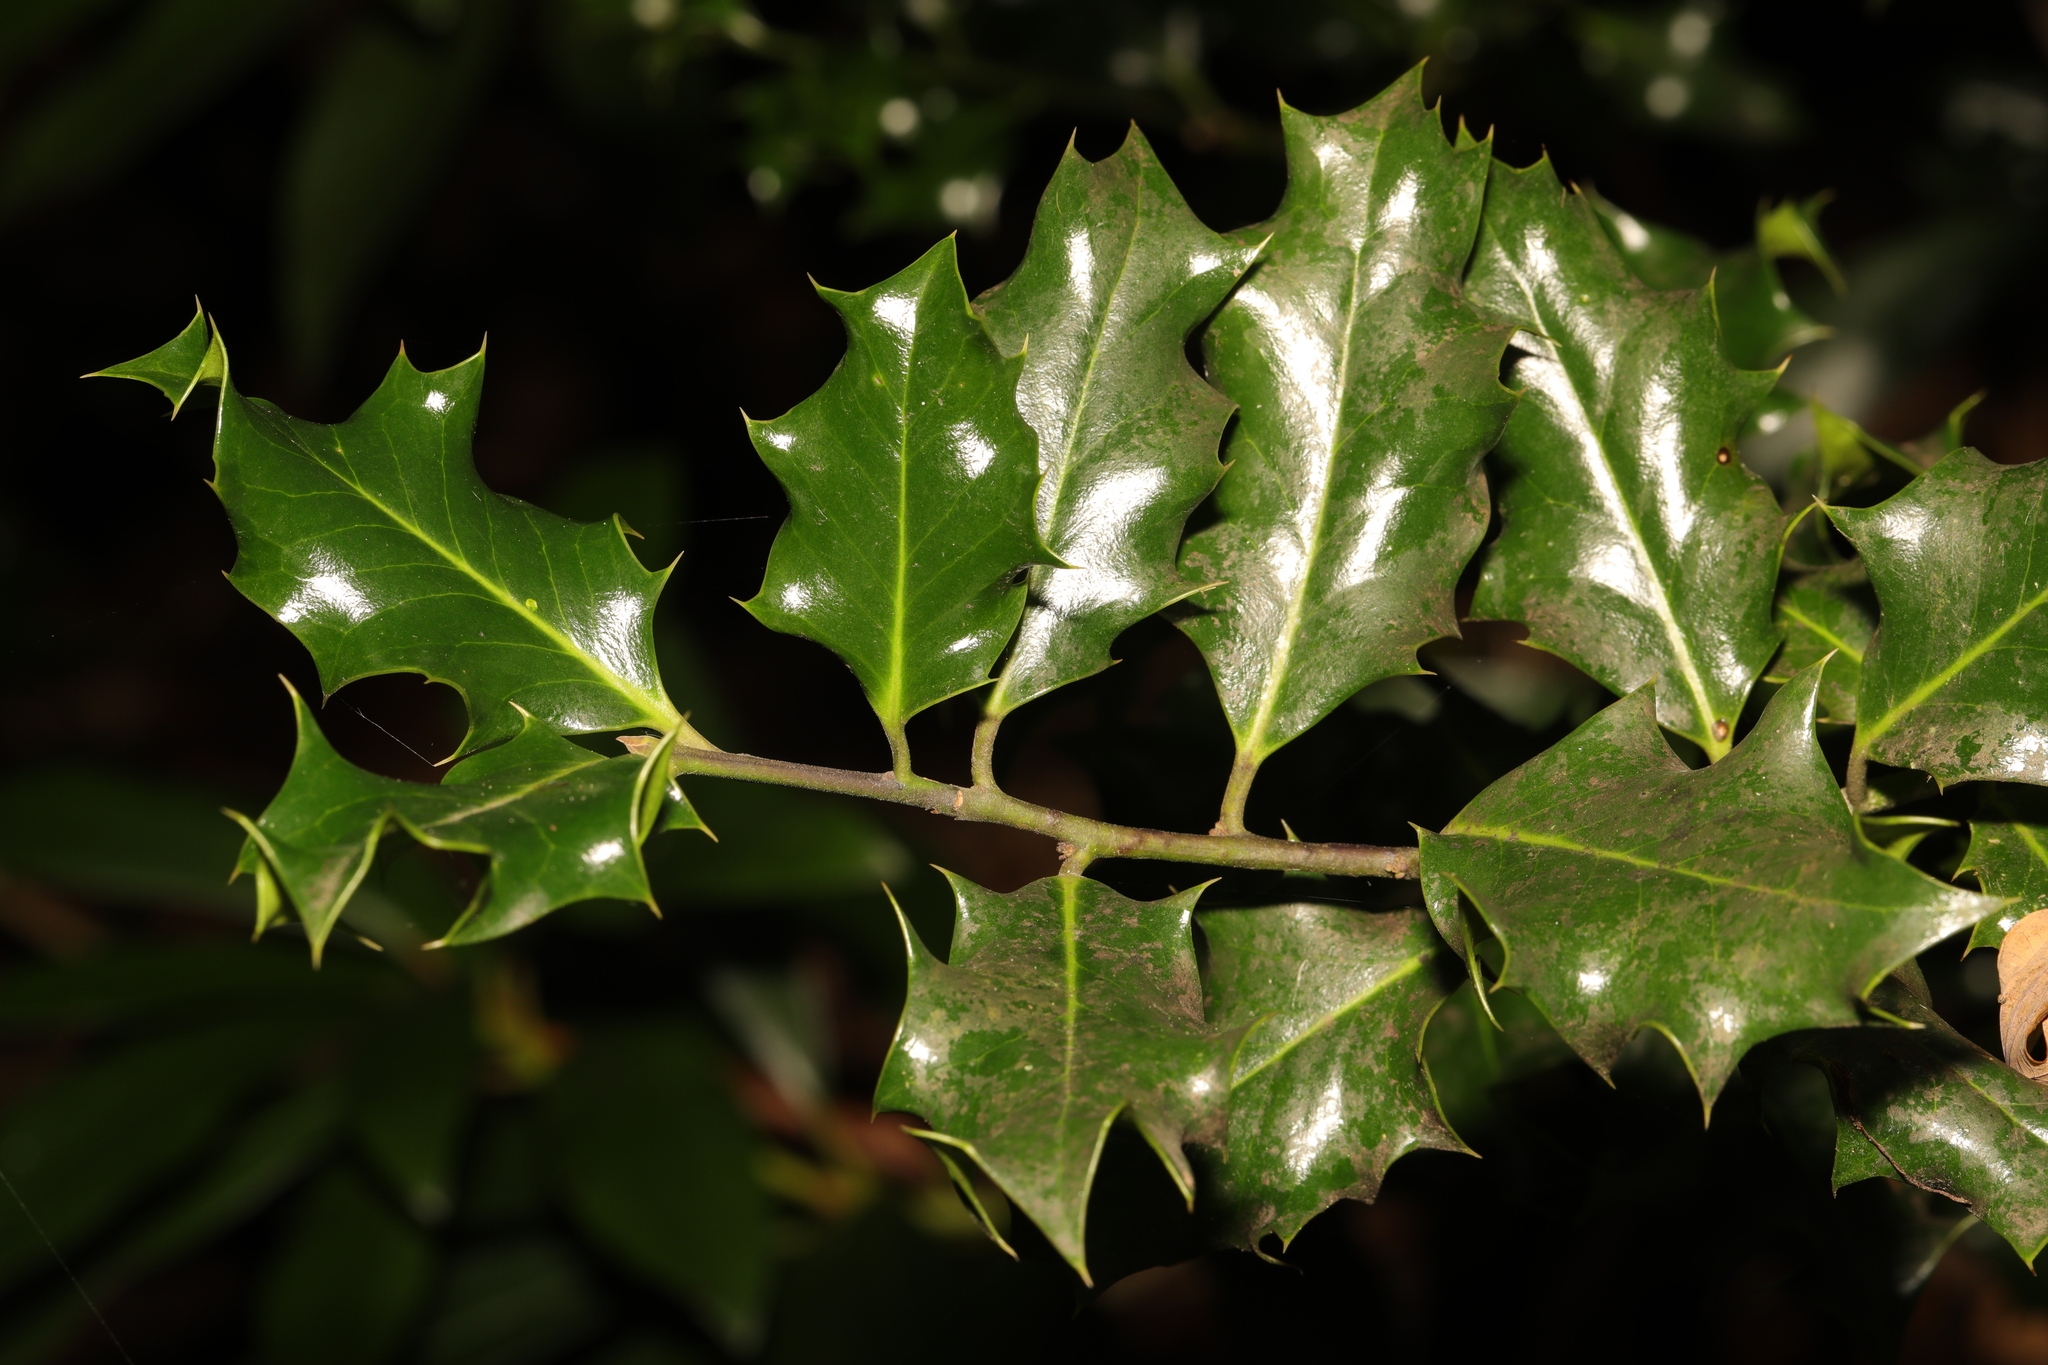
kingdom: Plantae
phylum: Tracheophyta
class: Magnoliopsida
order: Aquifoliales
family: Aquifoliaceae
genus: Ilex
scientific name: Ilex aquifolium
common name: English holly
